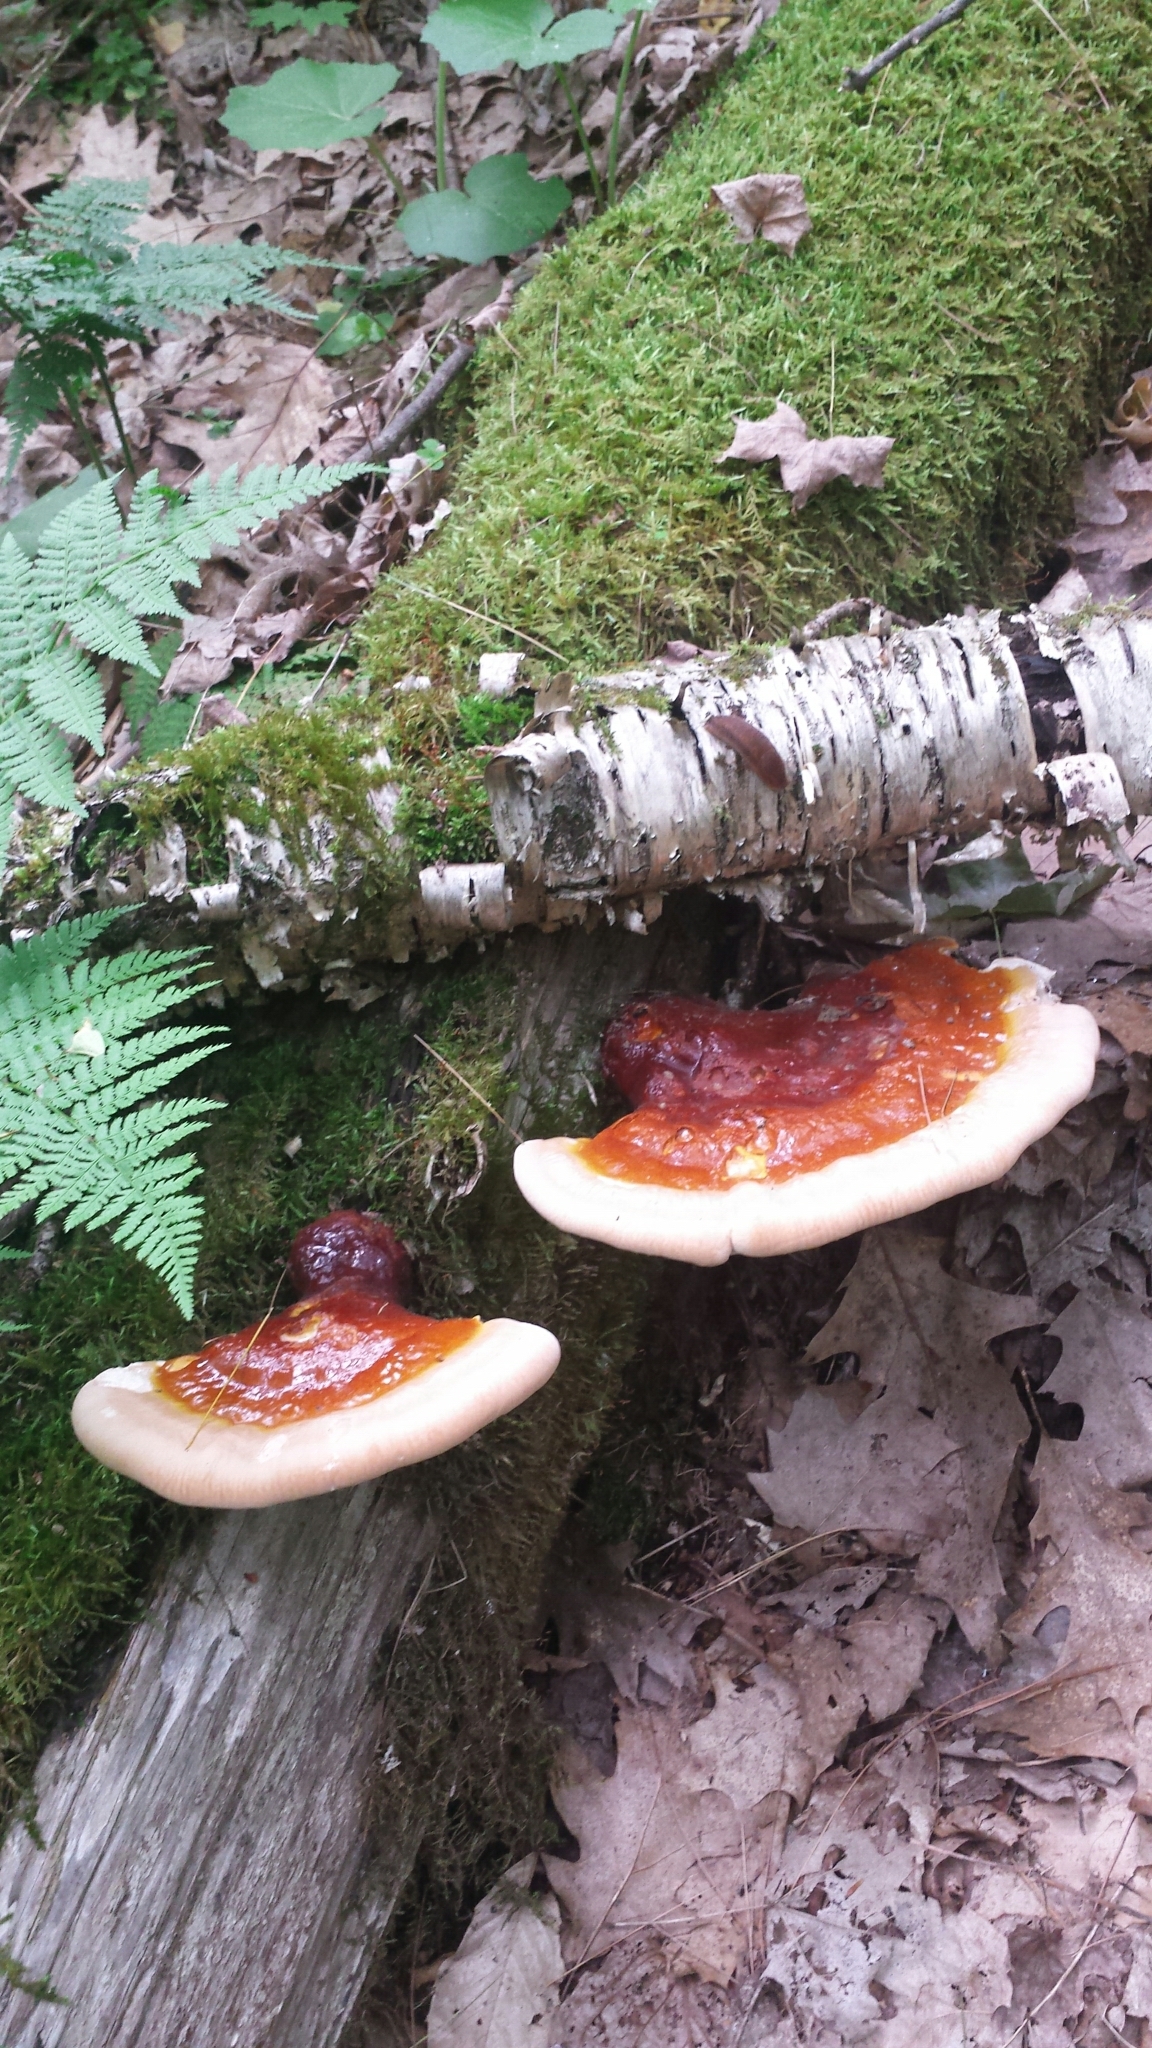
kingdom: Fungi
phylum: Basidiomycota
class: Agaricomycetes
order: Polyporales
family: Polyporaceae
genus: Ganoderma
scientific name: Ganoderma tsugae
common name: Hemlock varnish shelf
